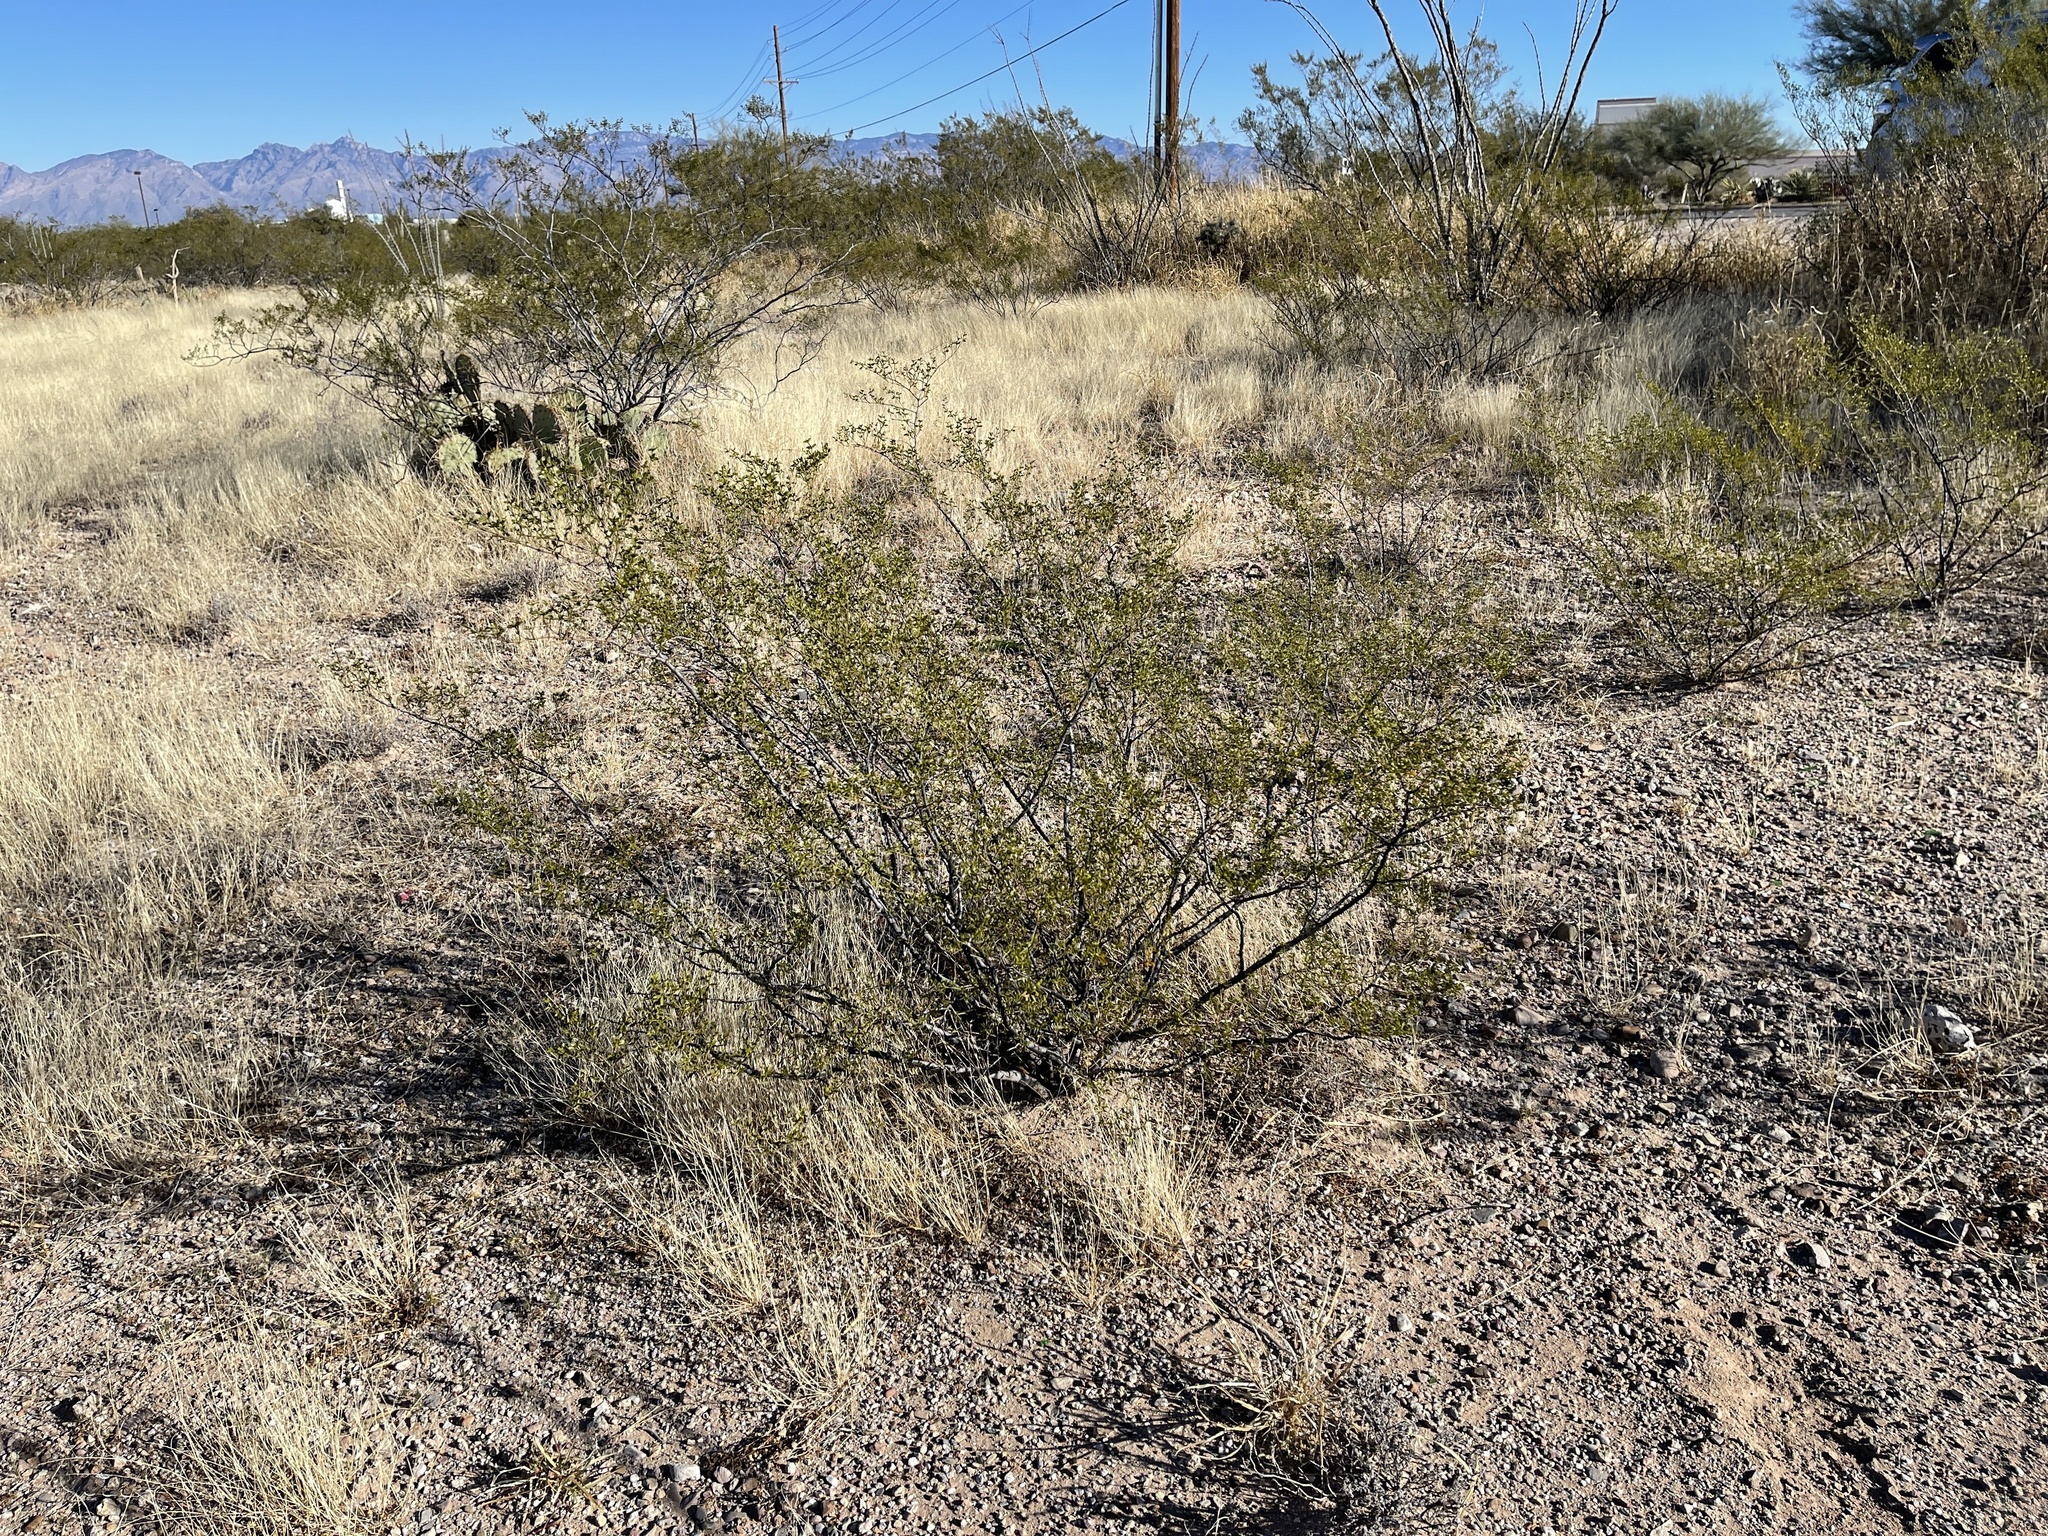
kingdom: Plantae
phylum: Tracheophyta
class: Magnoliopsida
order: Zygophyllales
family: Zygophyllaceae
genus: Larrea
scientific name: Larrea tridentata
